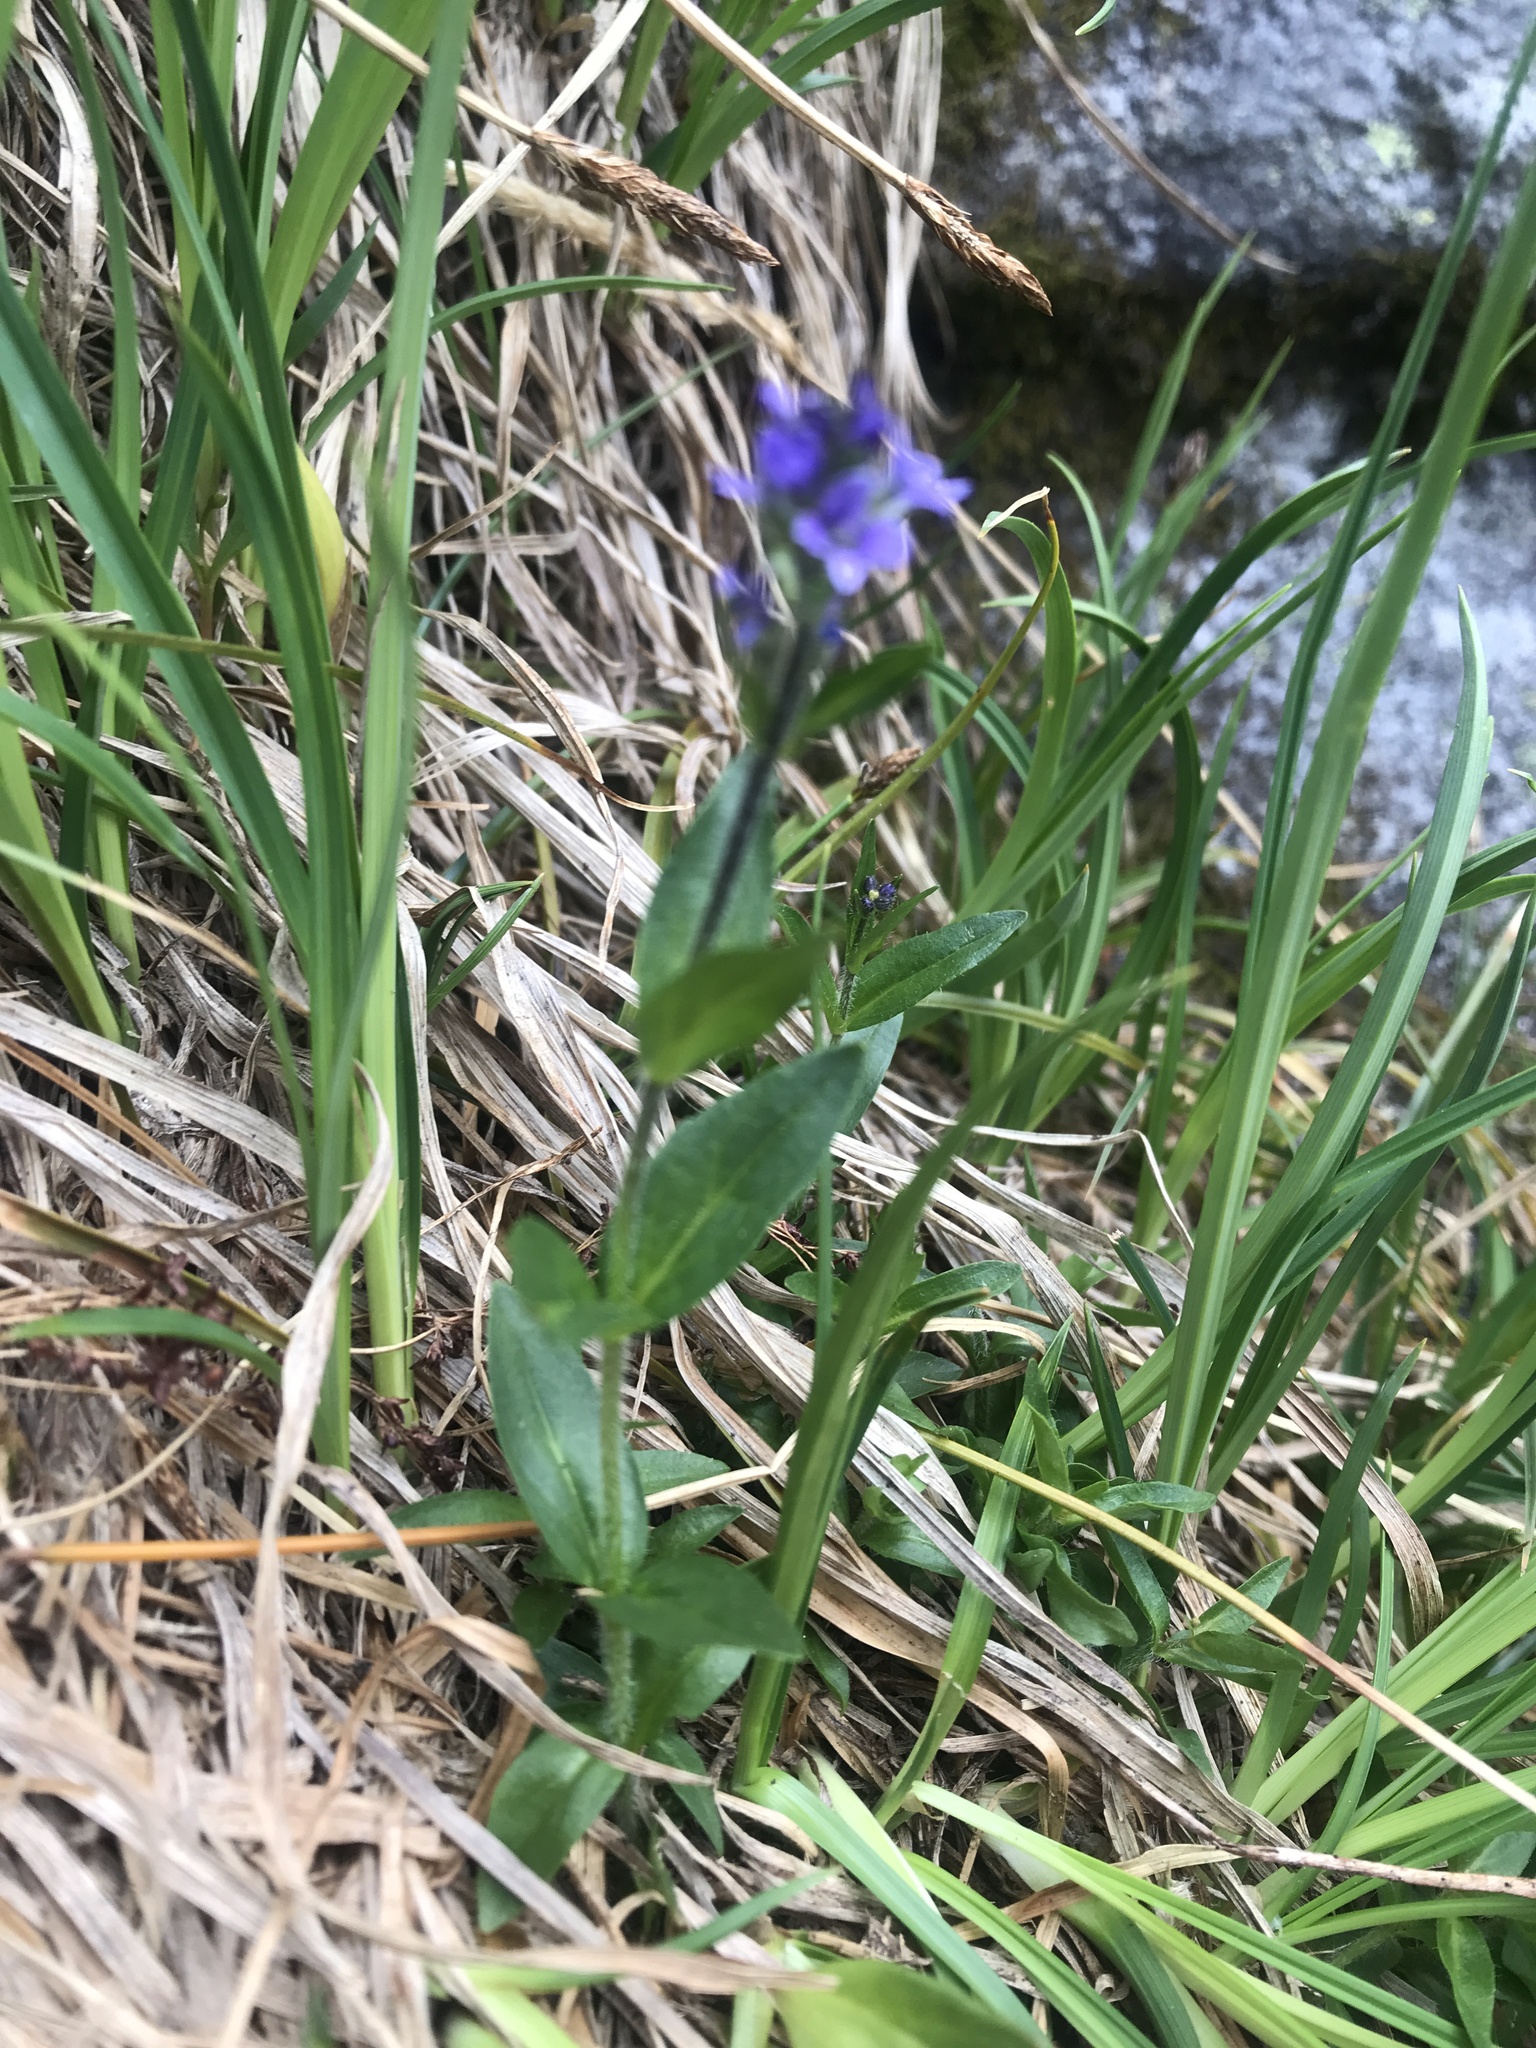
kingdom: Plantae
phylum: Tracheophyta
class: Magnoliopsida
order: Lamiales
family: Plantaginaceae
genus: Veronica
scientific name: Veronica wormskjoldii
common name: American alpine speedwell
